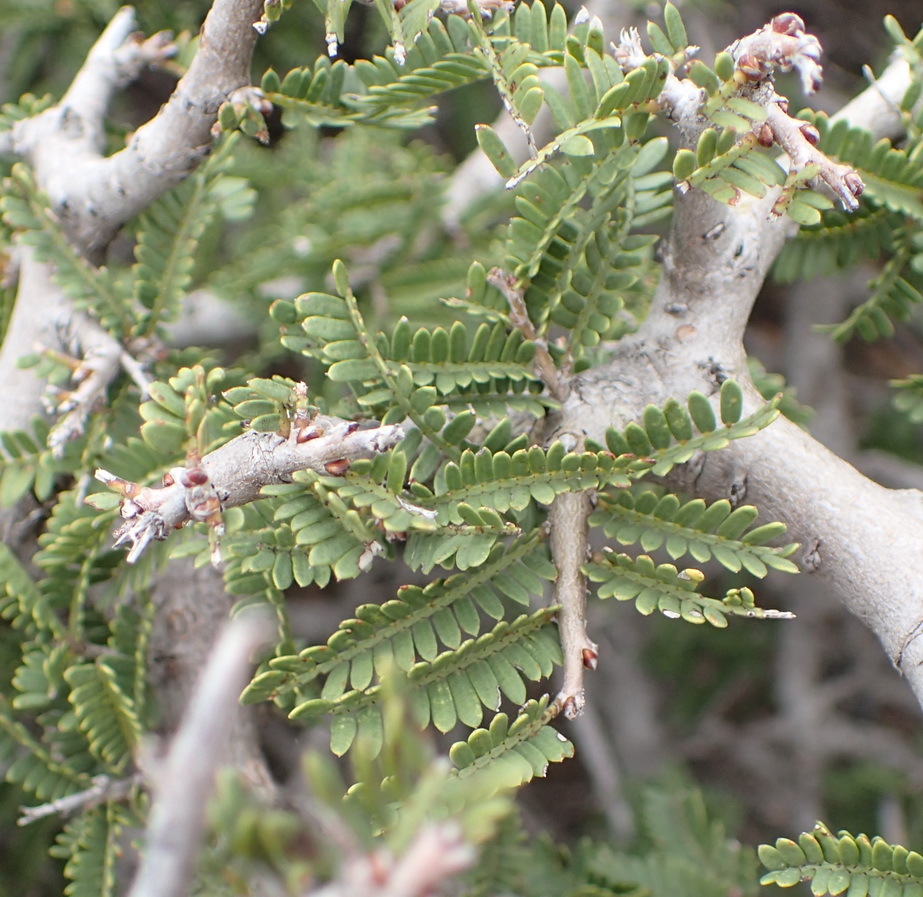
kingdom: Plantae
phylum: Tracheophyta
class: Magnoliopsida
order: Fabales
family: Fabaceae
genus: Schotia
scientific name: Schotia afra
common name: Hottentot's bean
